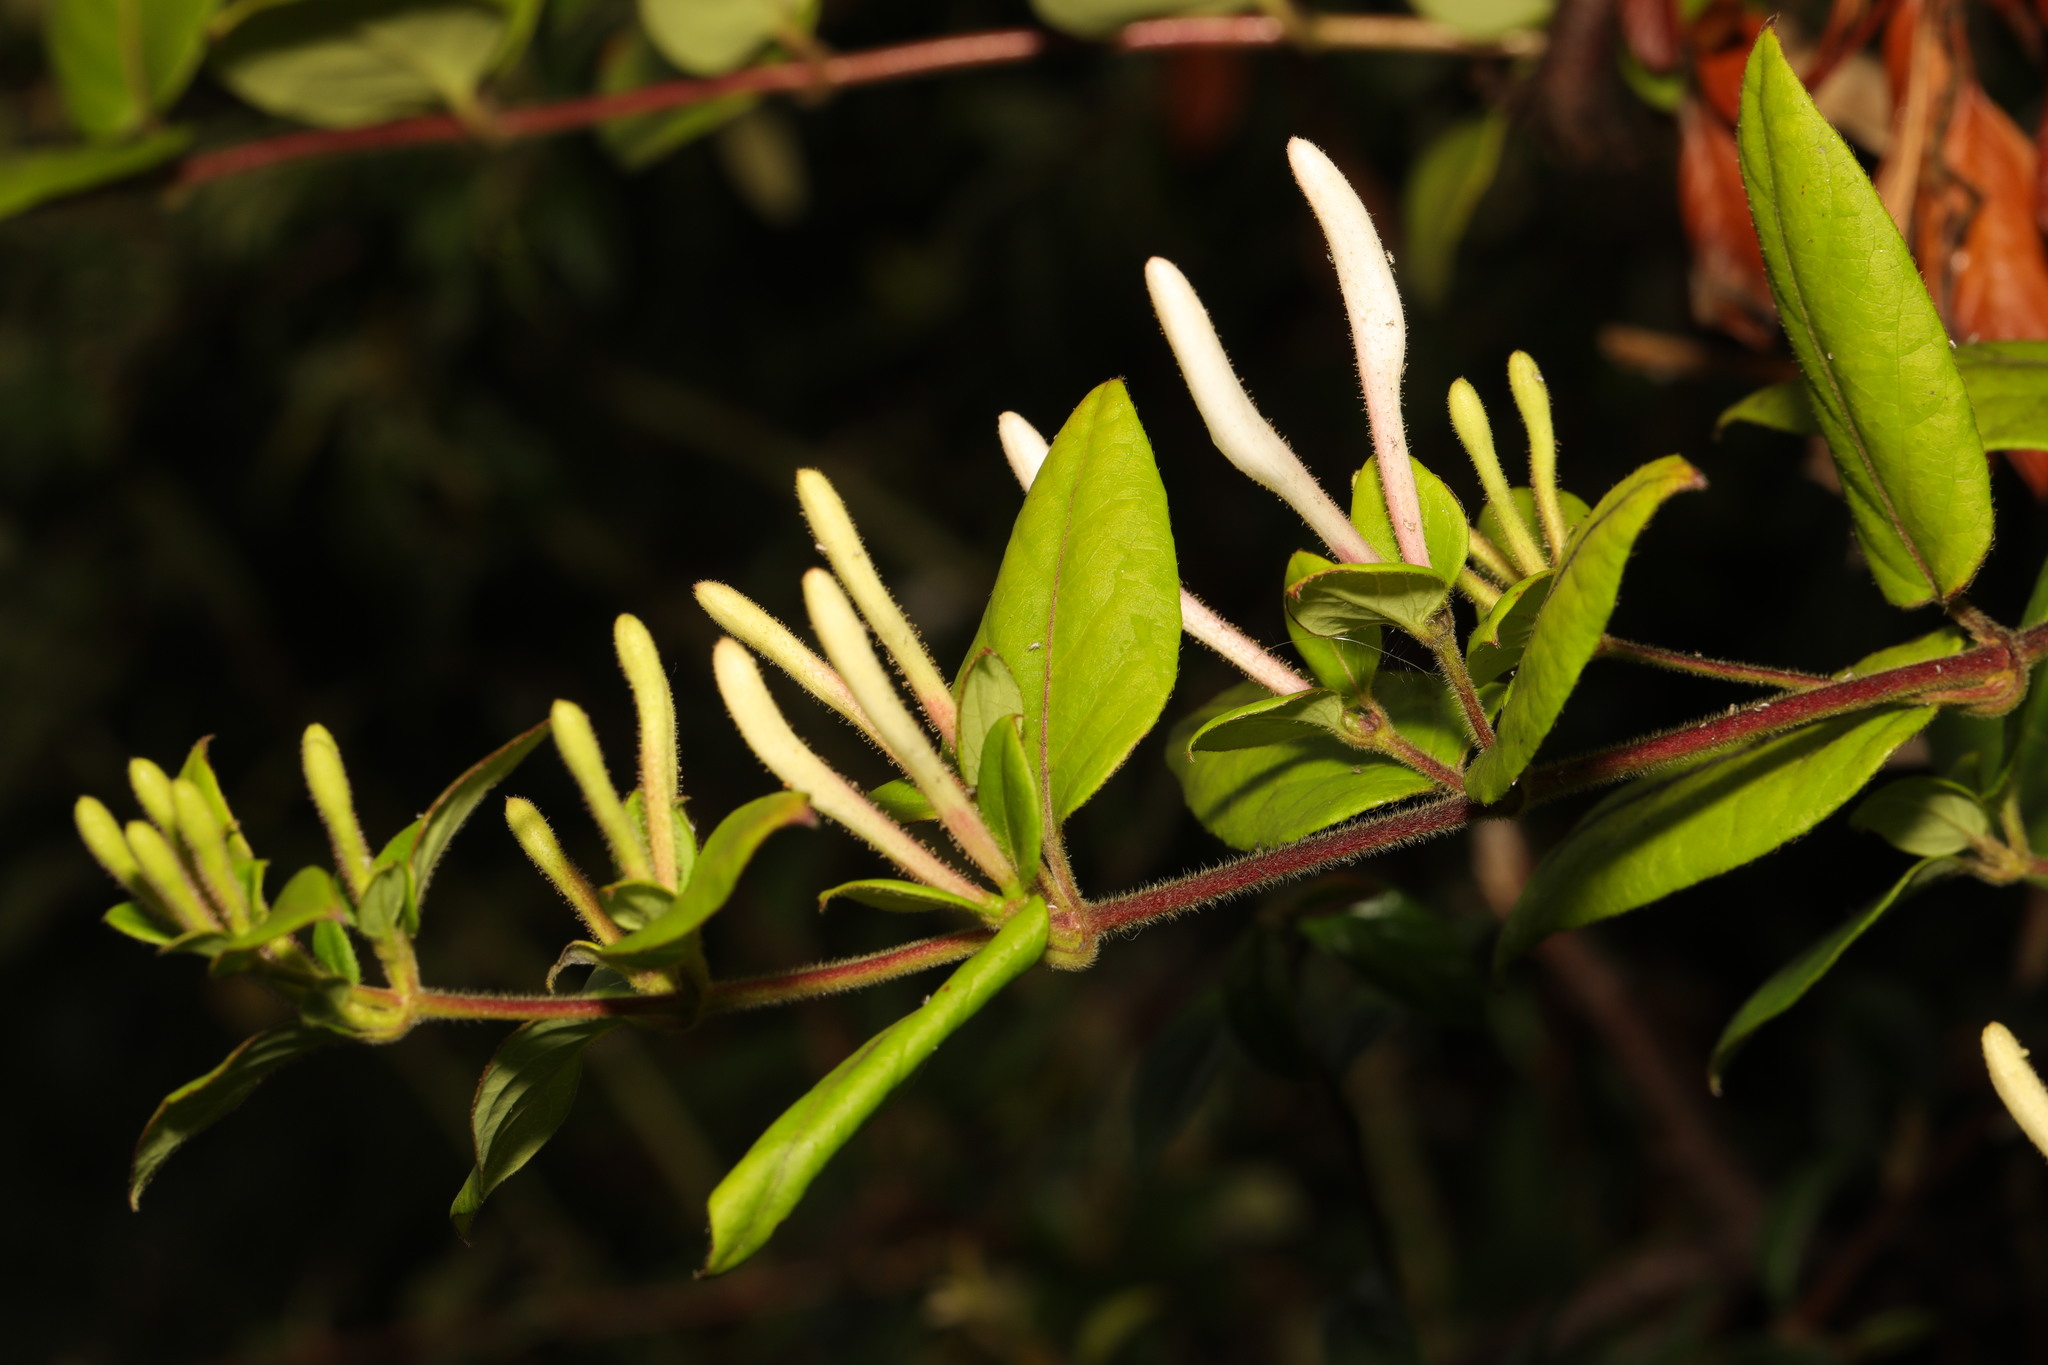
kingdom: Plantae
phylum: Tracheophyta
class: Magnoliopsida
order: Dipsacales
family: Caprifoliaceae
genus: Lonicera
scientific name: Lonicera japonica
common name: Japanese honeysuckle
